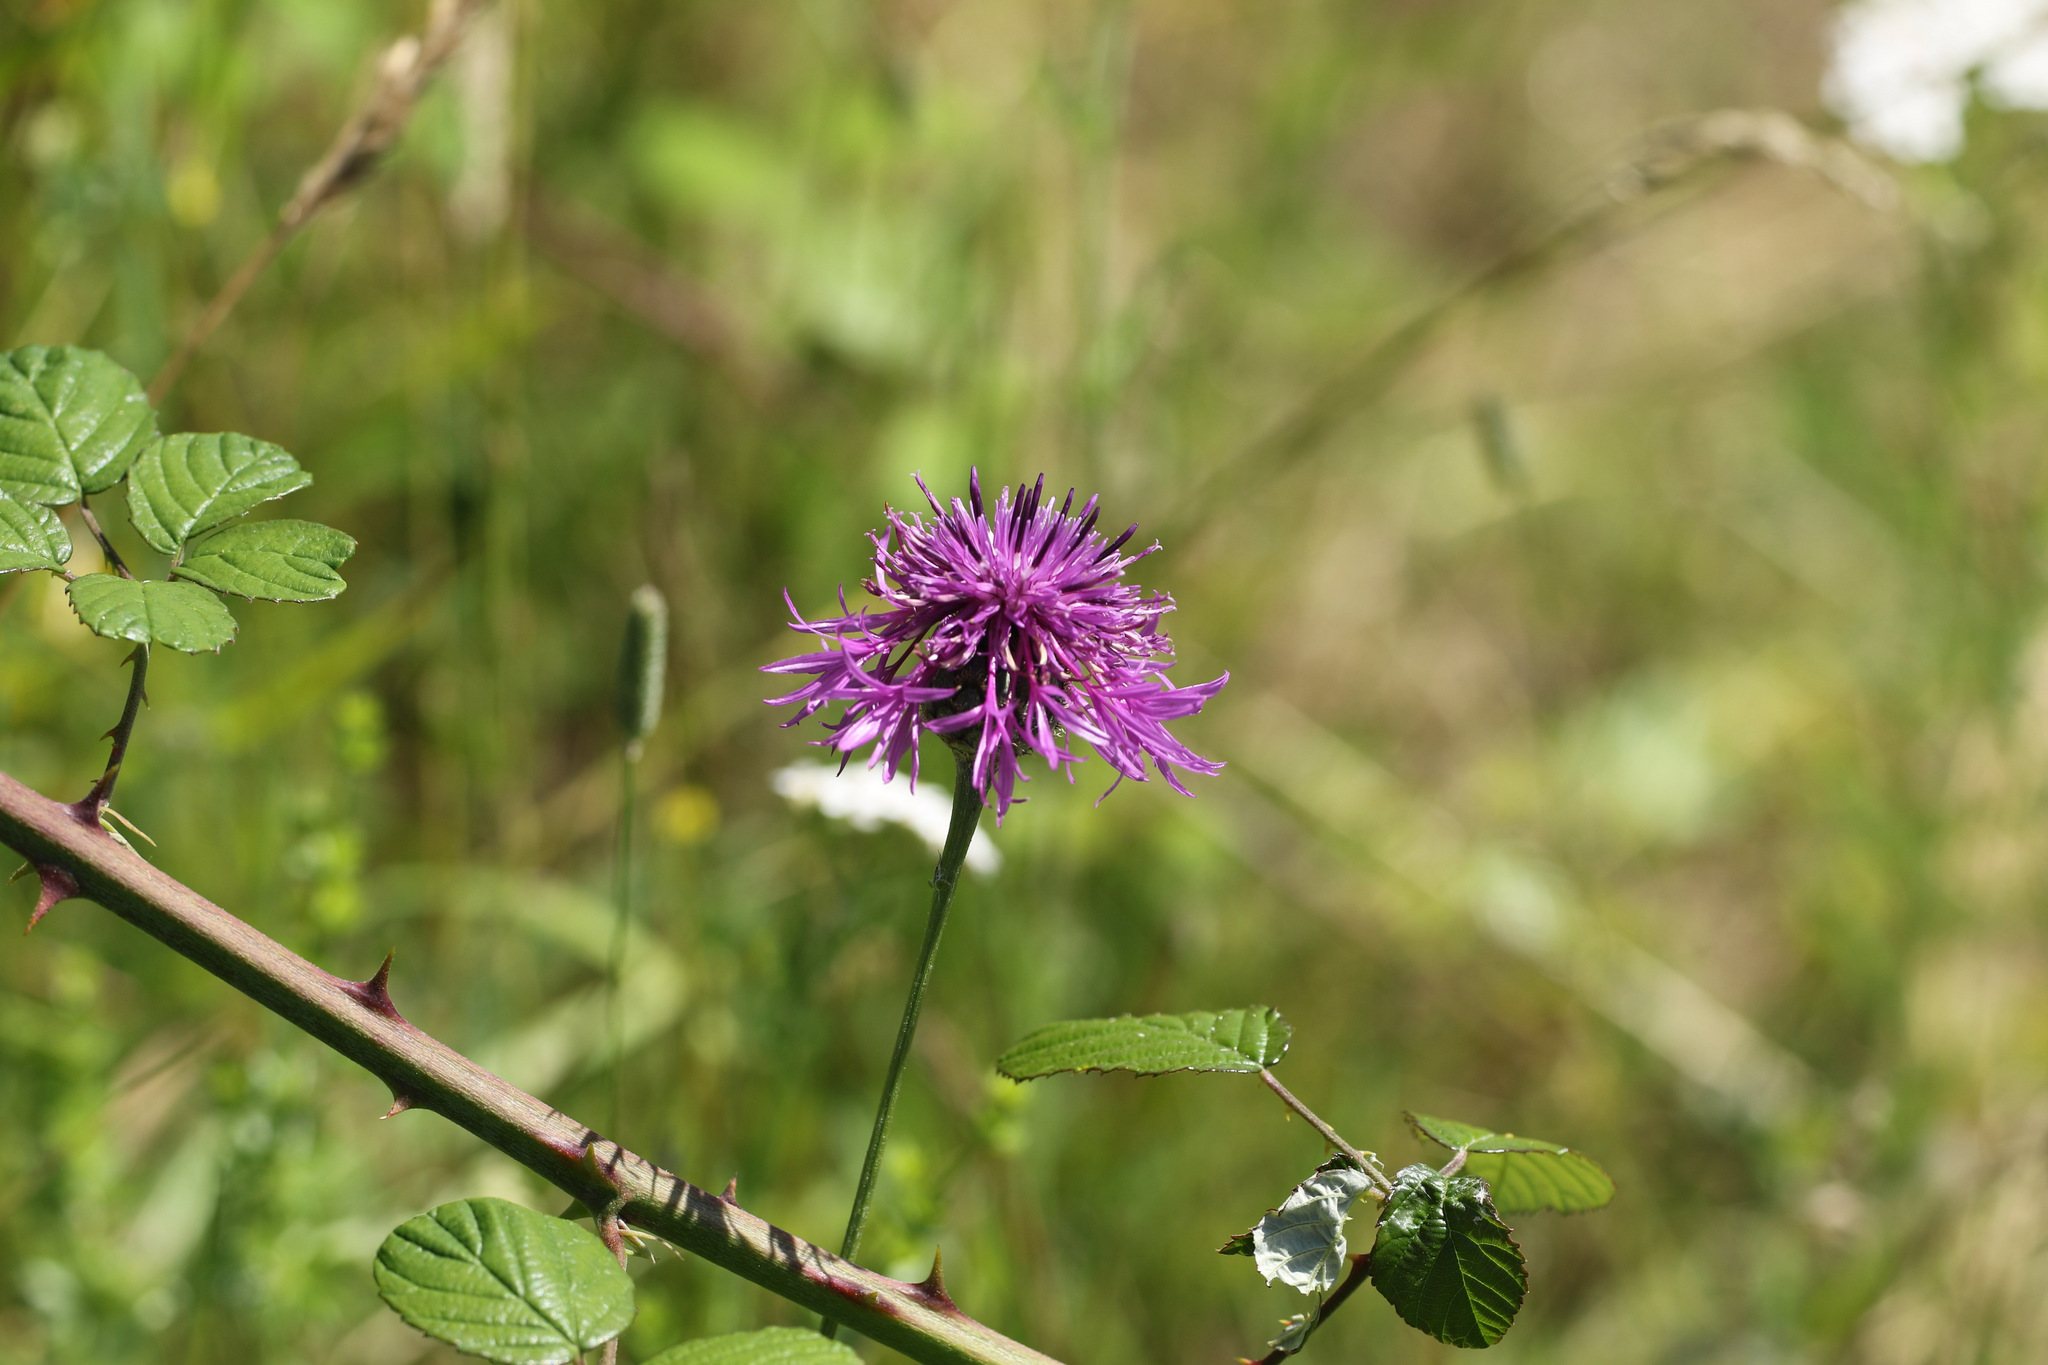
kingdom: Plantae
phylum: Tracheophyta
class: Magnoliopsida
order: Asterales
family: Asteraceae
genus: Centaurea
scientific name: Centaurea scabiosa
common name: Greater knapweed
